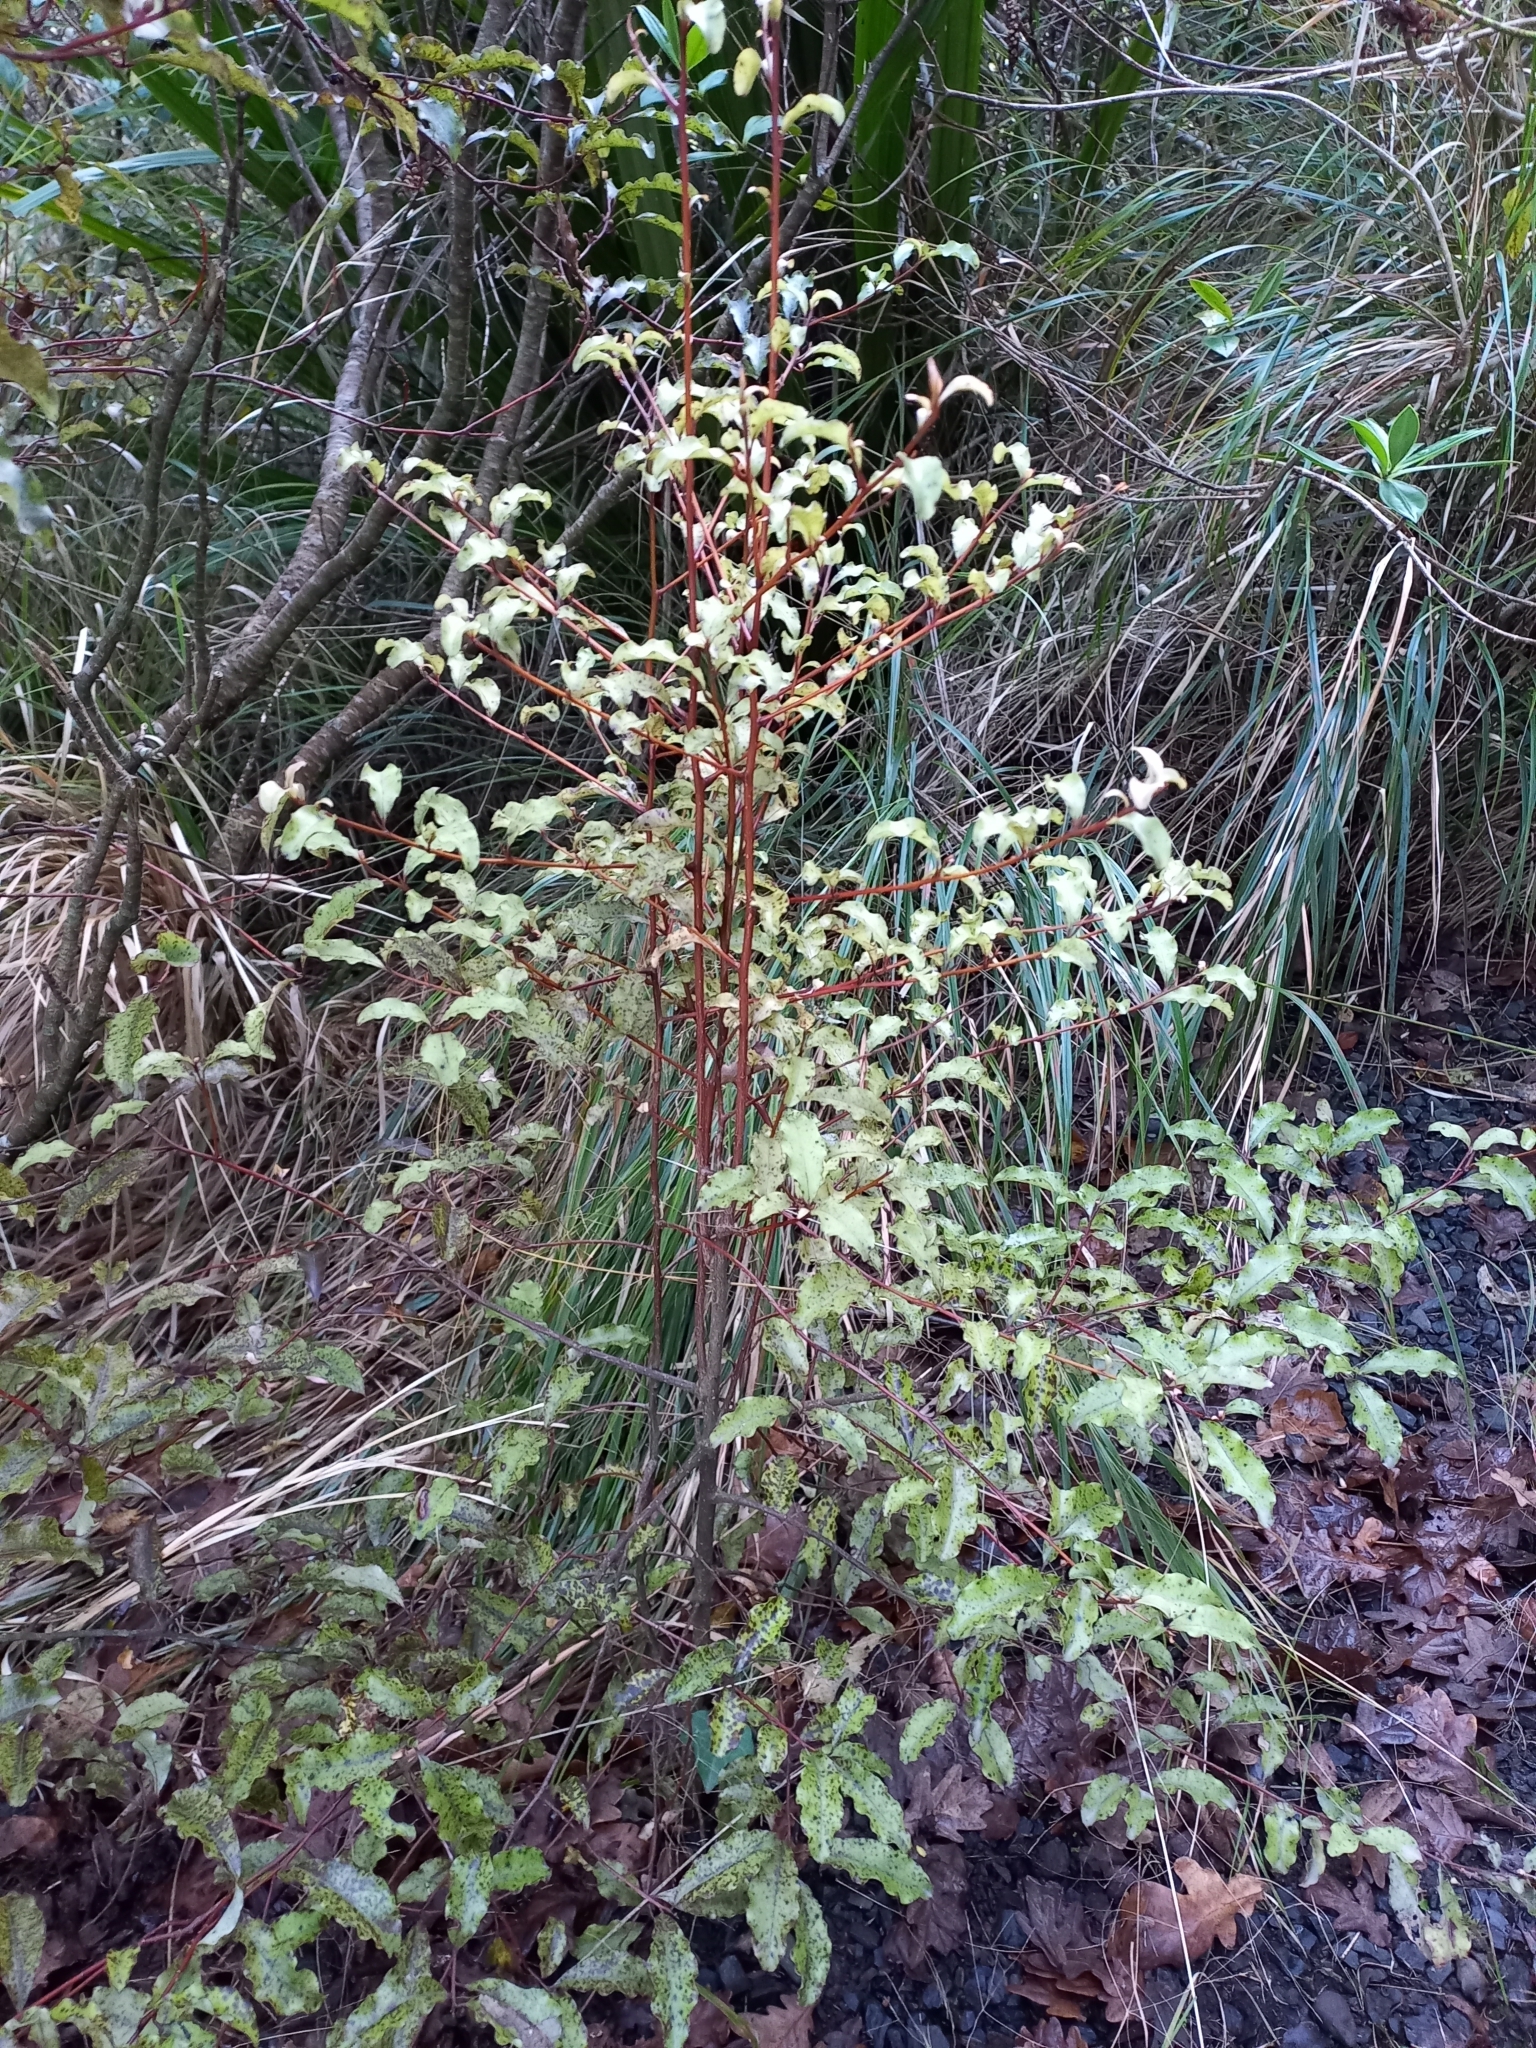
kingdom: Plantae
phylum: Tracheophyta
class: Magnoliopsida
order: Ericales
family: Primulaceae
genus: Myrsine
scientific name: Myrsine australis
